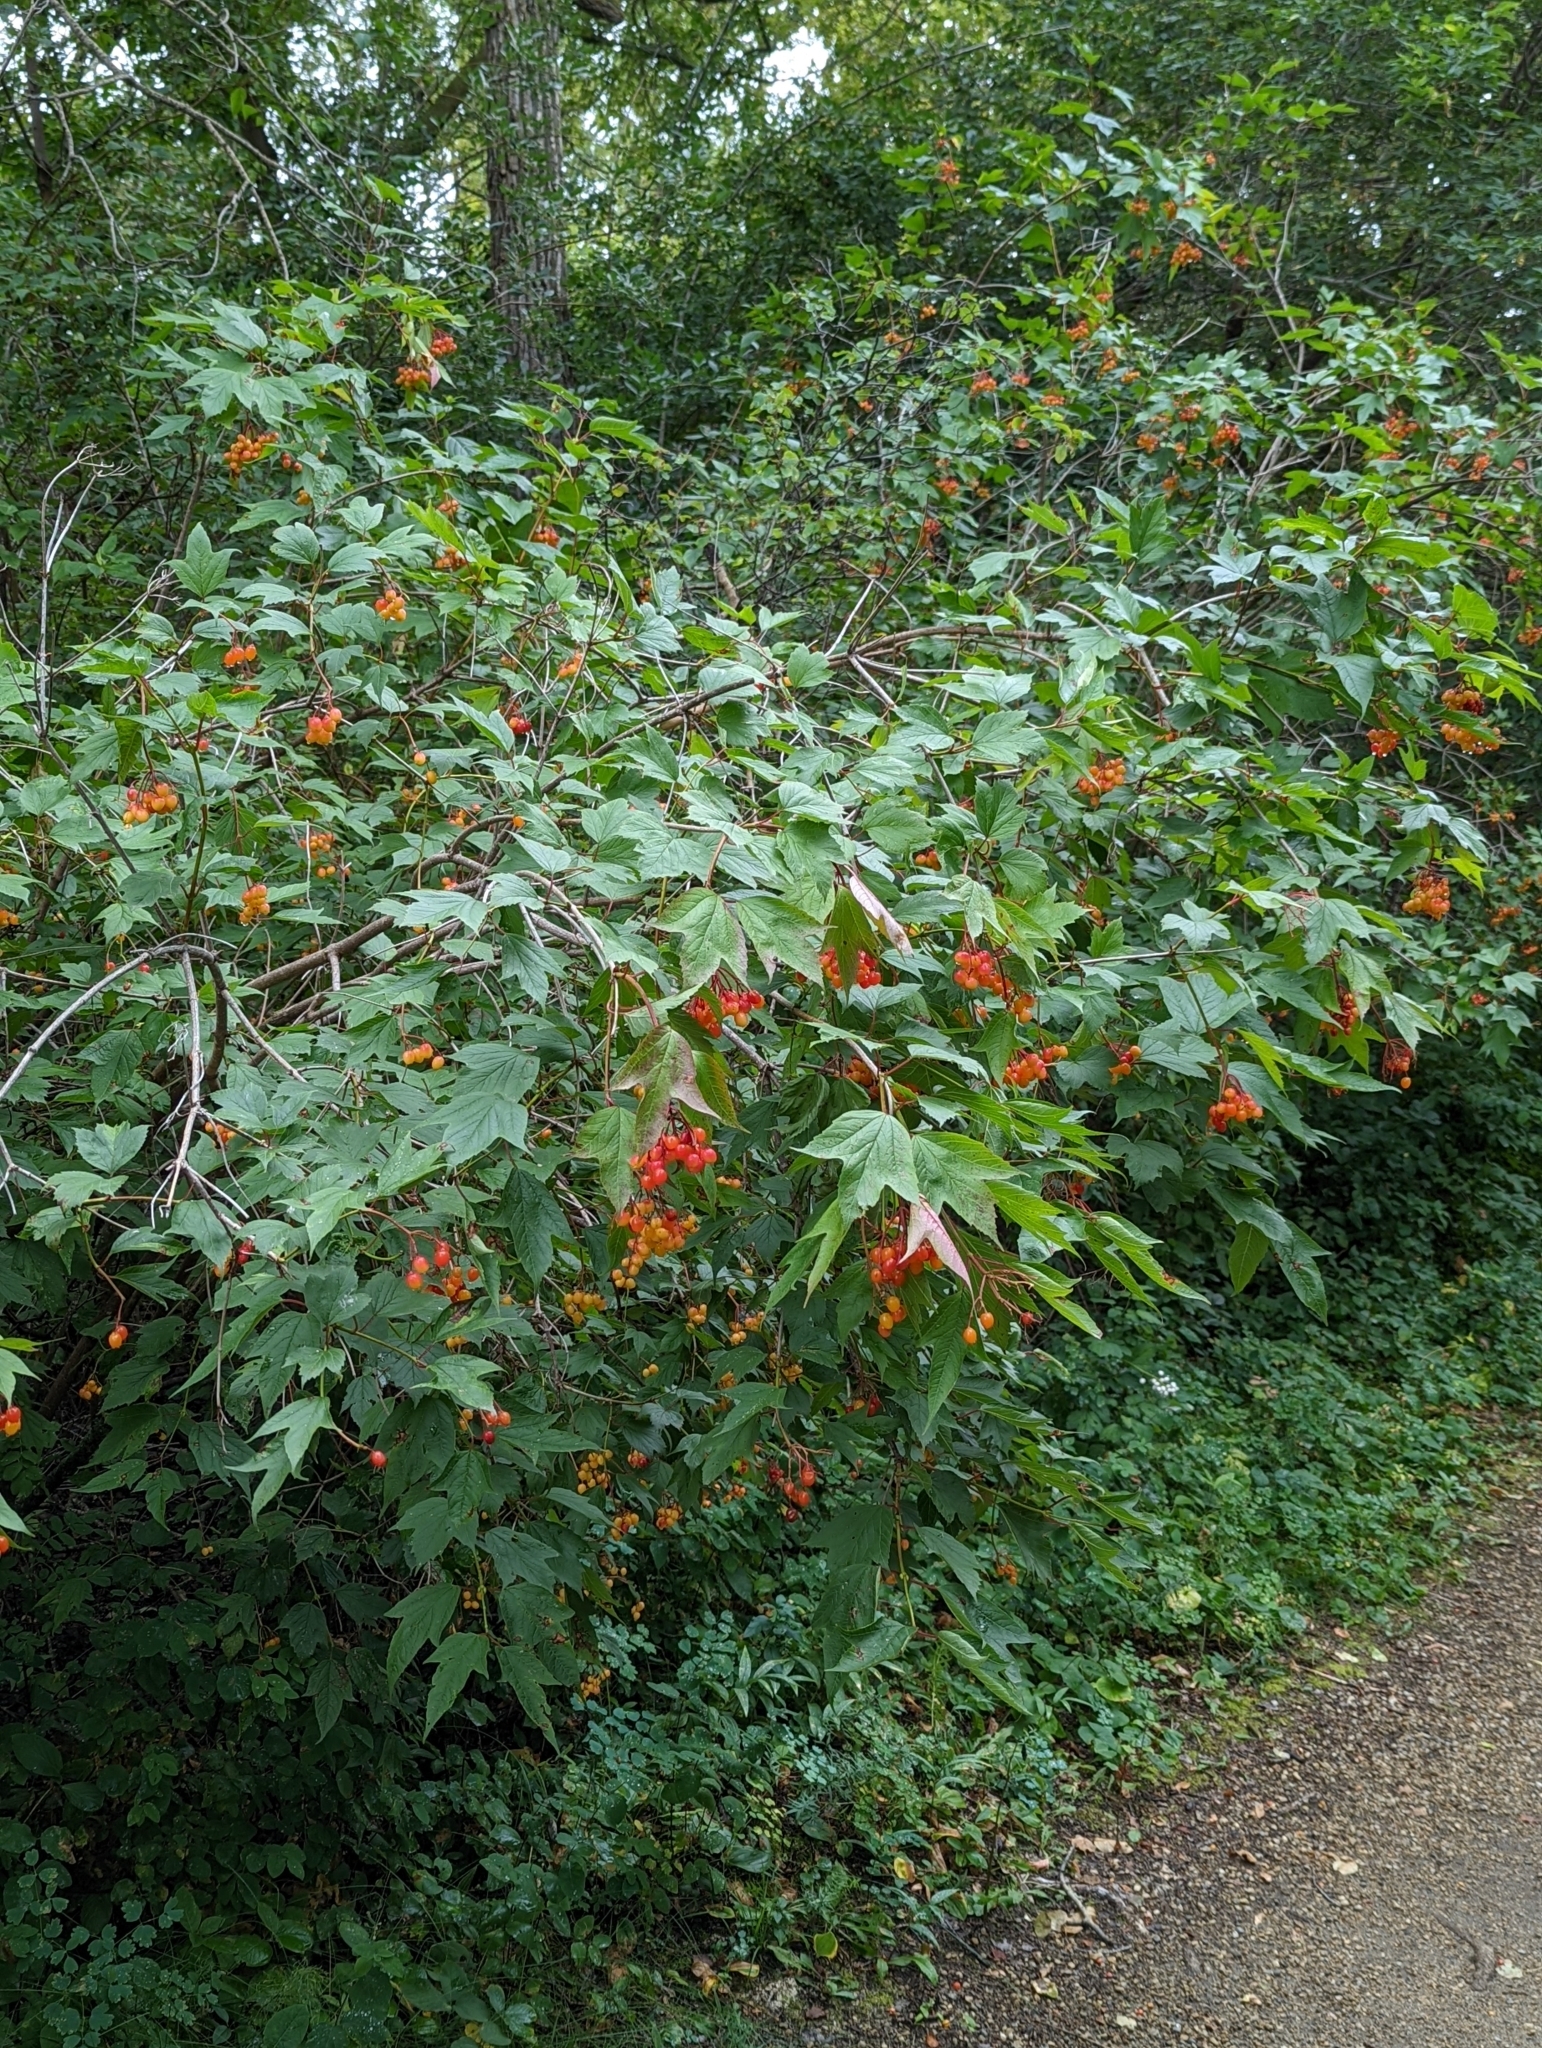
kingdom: Plantae
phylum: Tracheophyta
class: Magnoliopsida
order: Dipsacales
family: Viburnaceae
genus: Viburnum
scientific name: Viburnum opulus
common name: Guelder-rose
